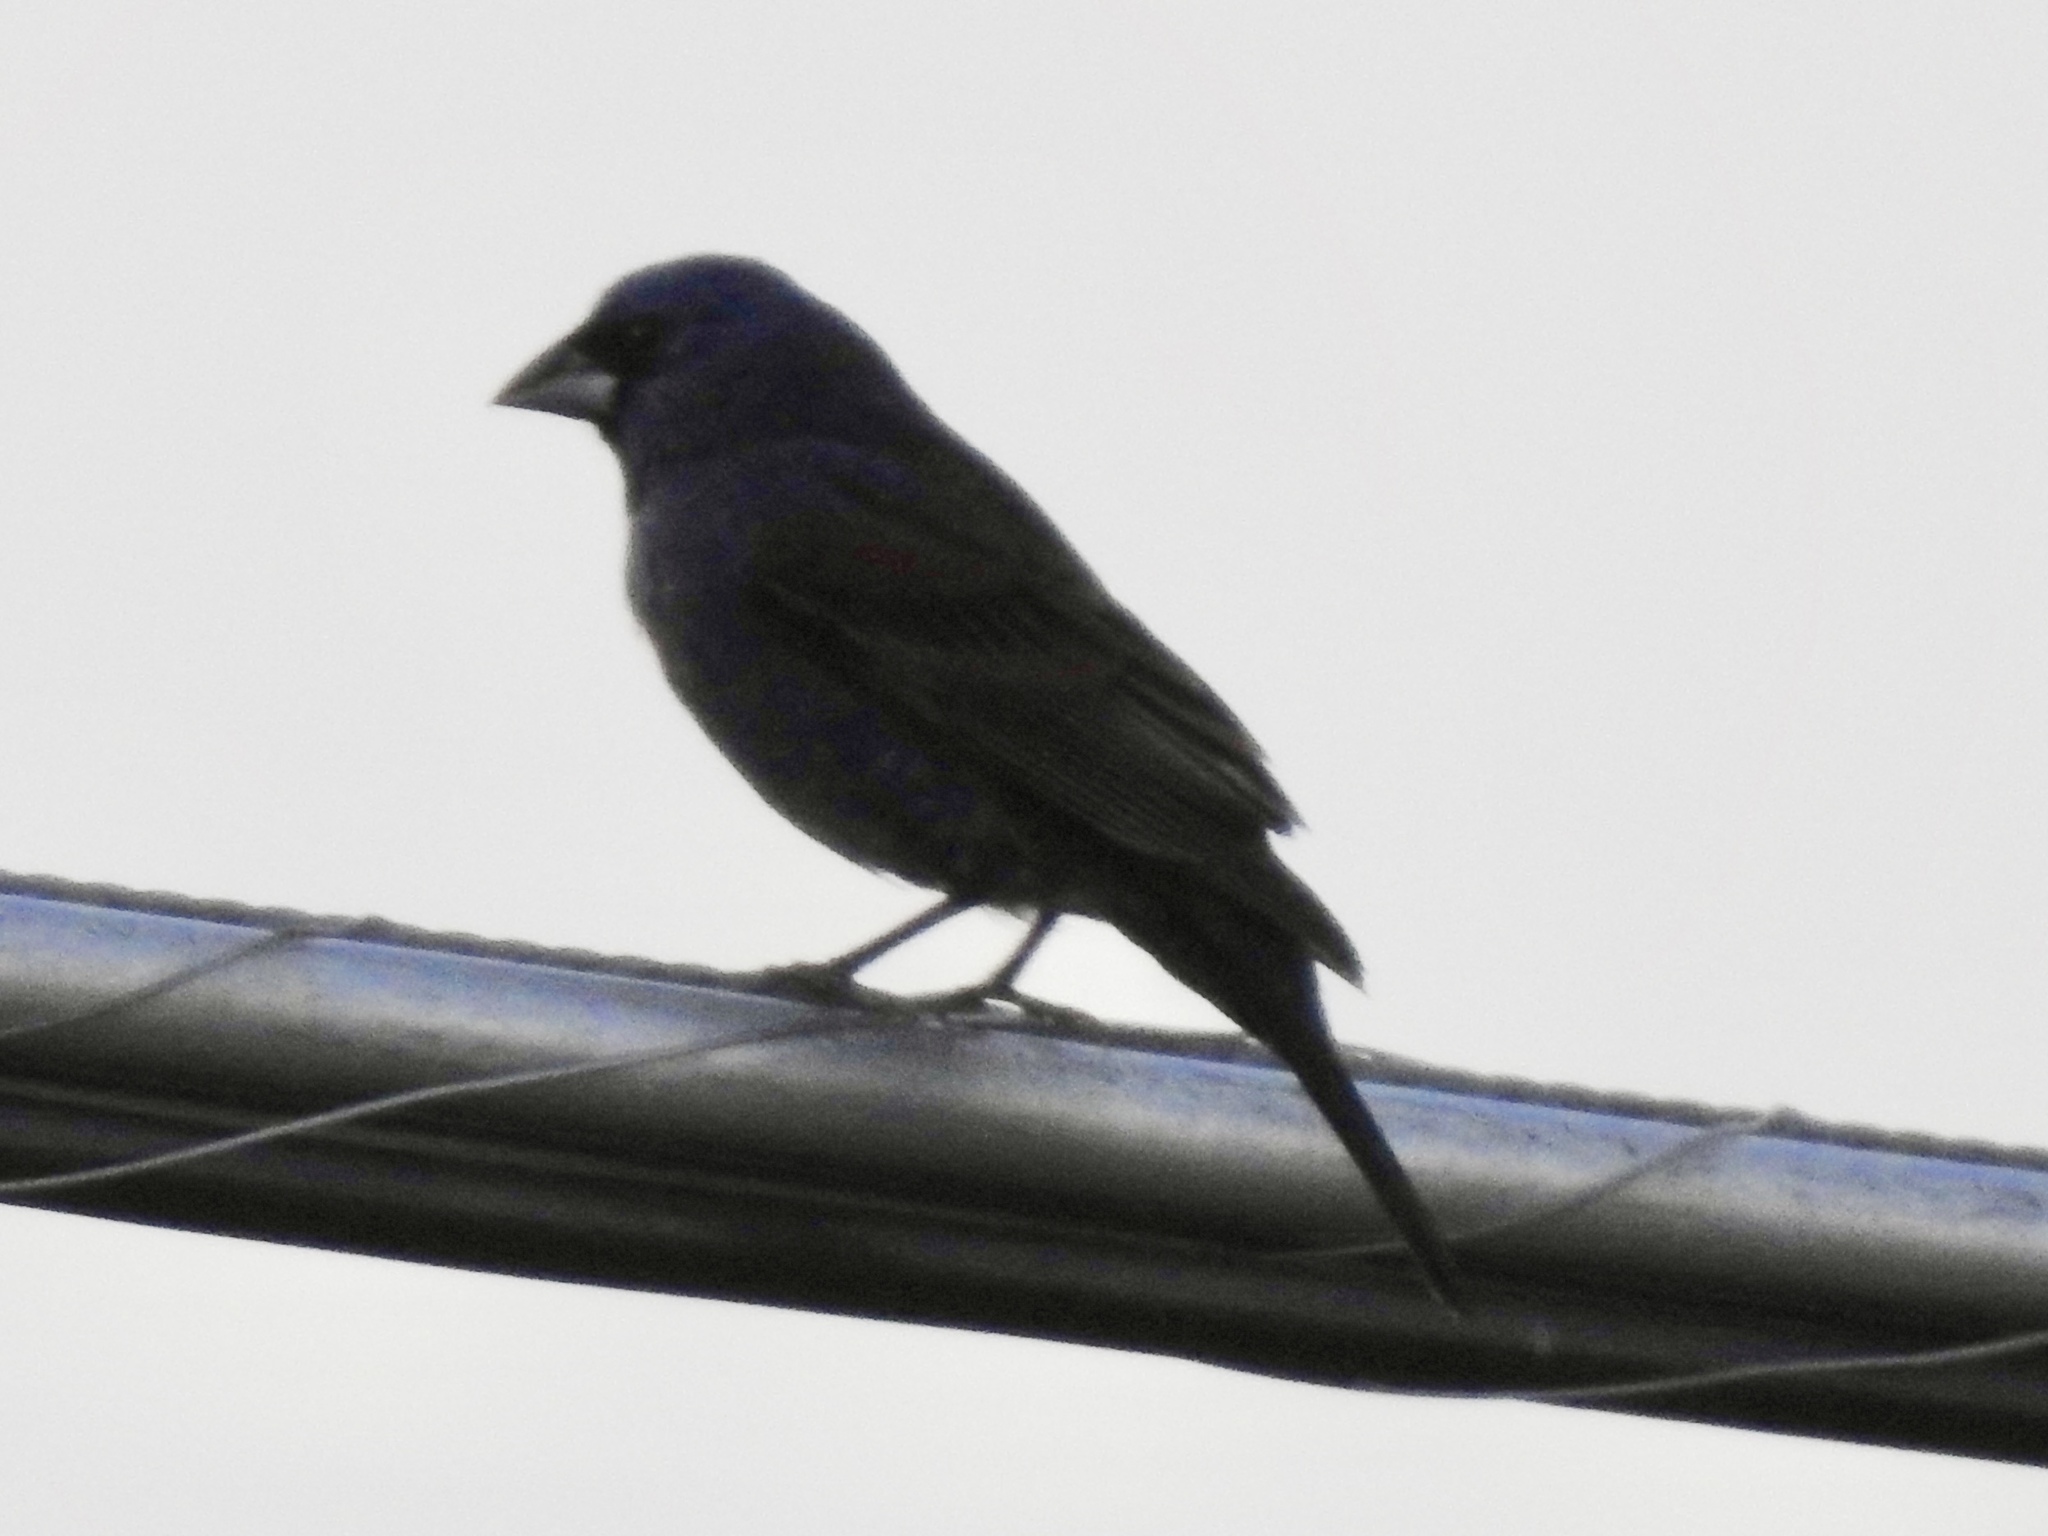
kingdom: Animalia
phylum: Chordata
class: Aves
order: Passeriformes
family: Cardinalidae
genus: Passerina
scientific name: Passerina caerulea
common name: Blue grosbeak
